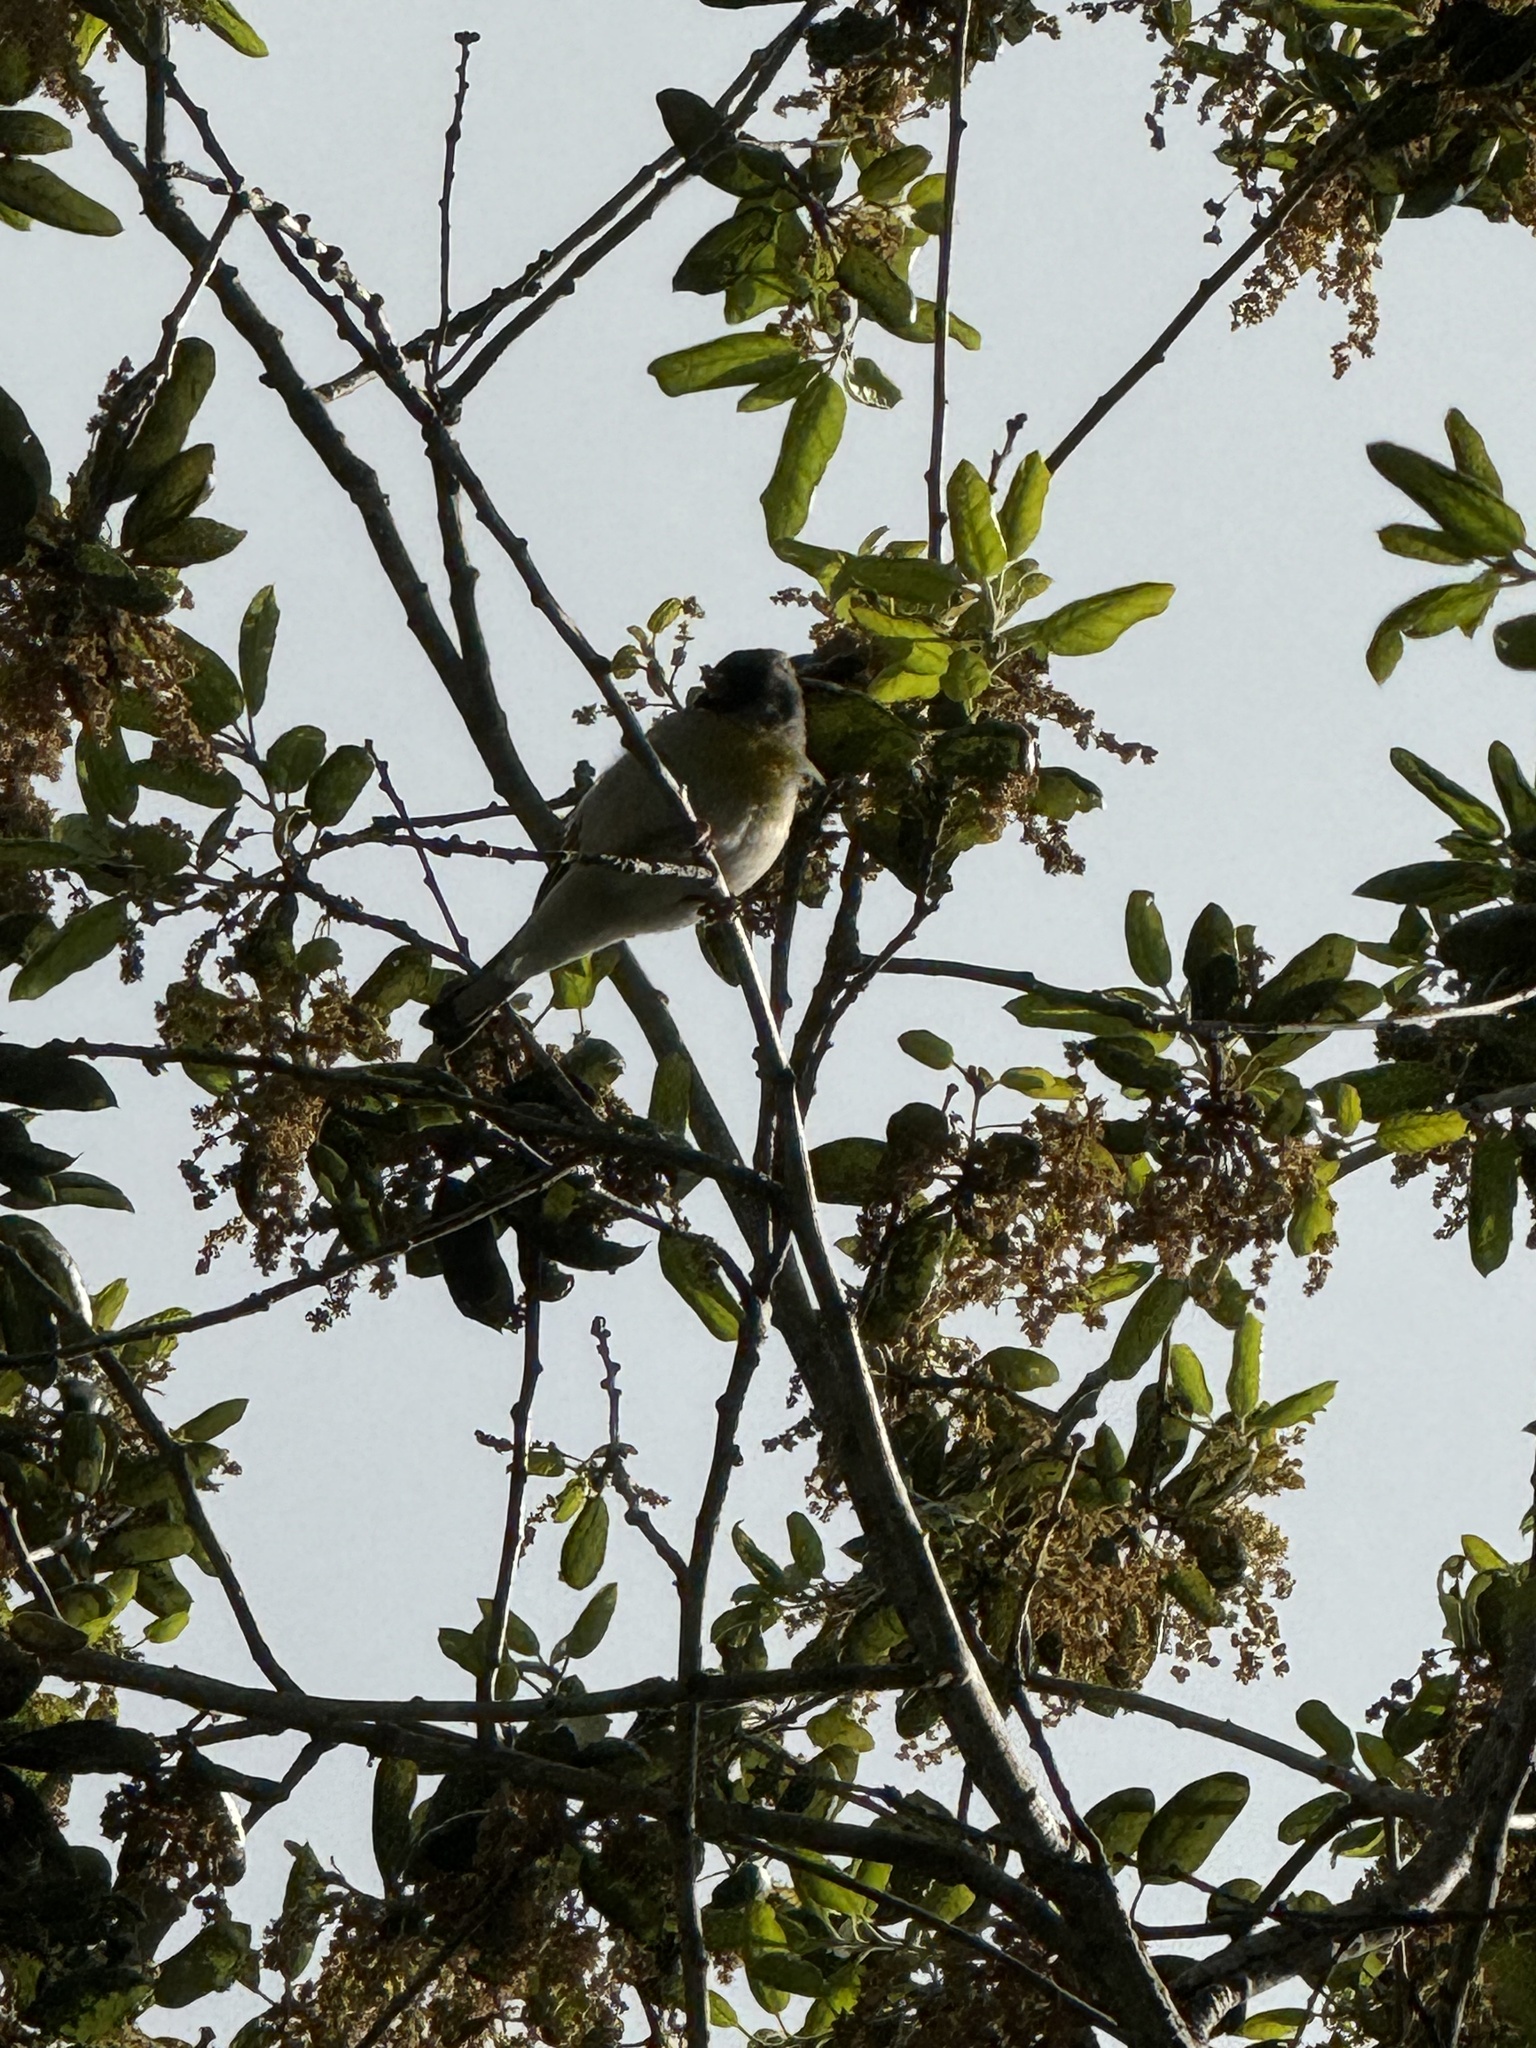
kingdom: Animalia
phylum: Chordata
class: Aves
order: Passeriformes
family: Fringillidae
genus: Spinus
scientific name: Spinus lawrencei
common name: Lawrence's goldfinch
